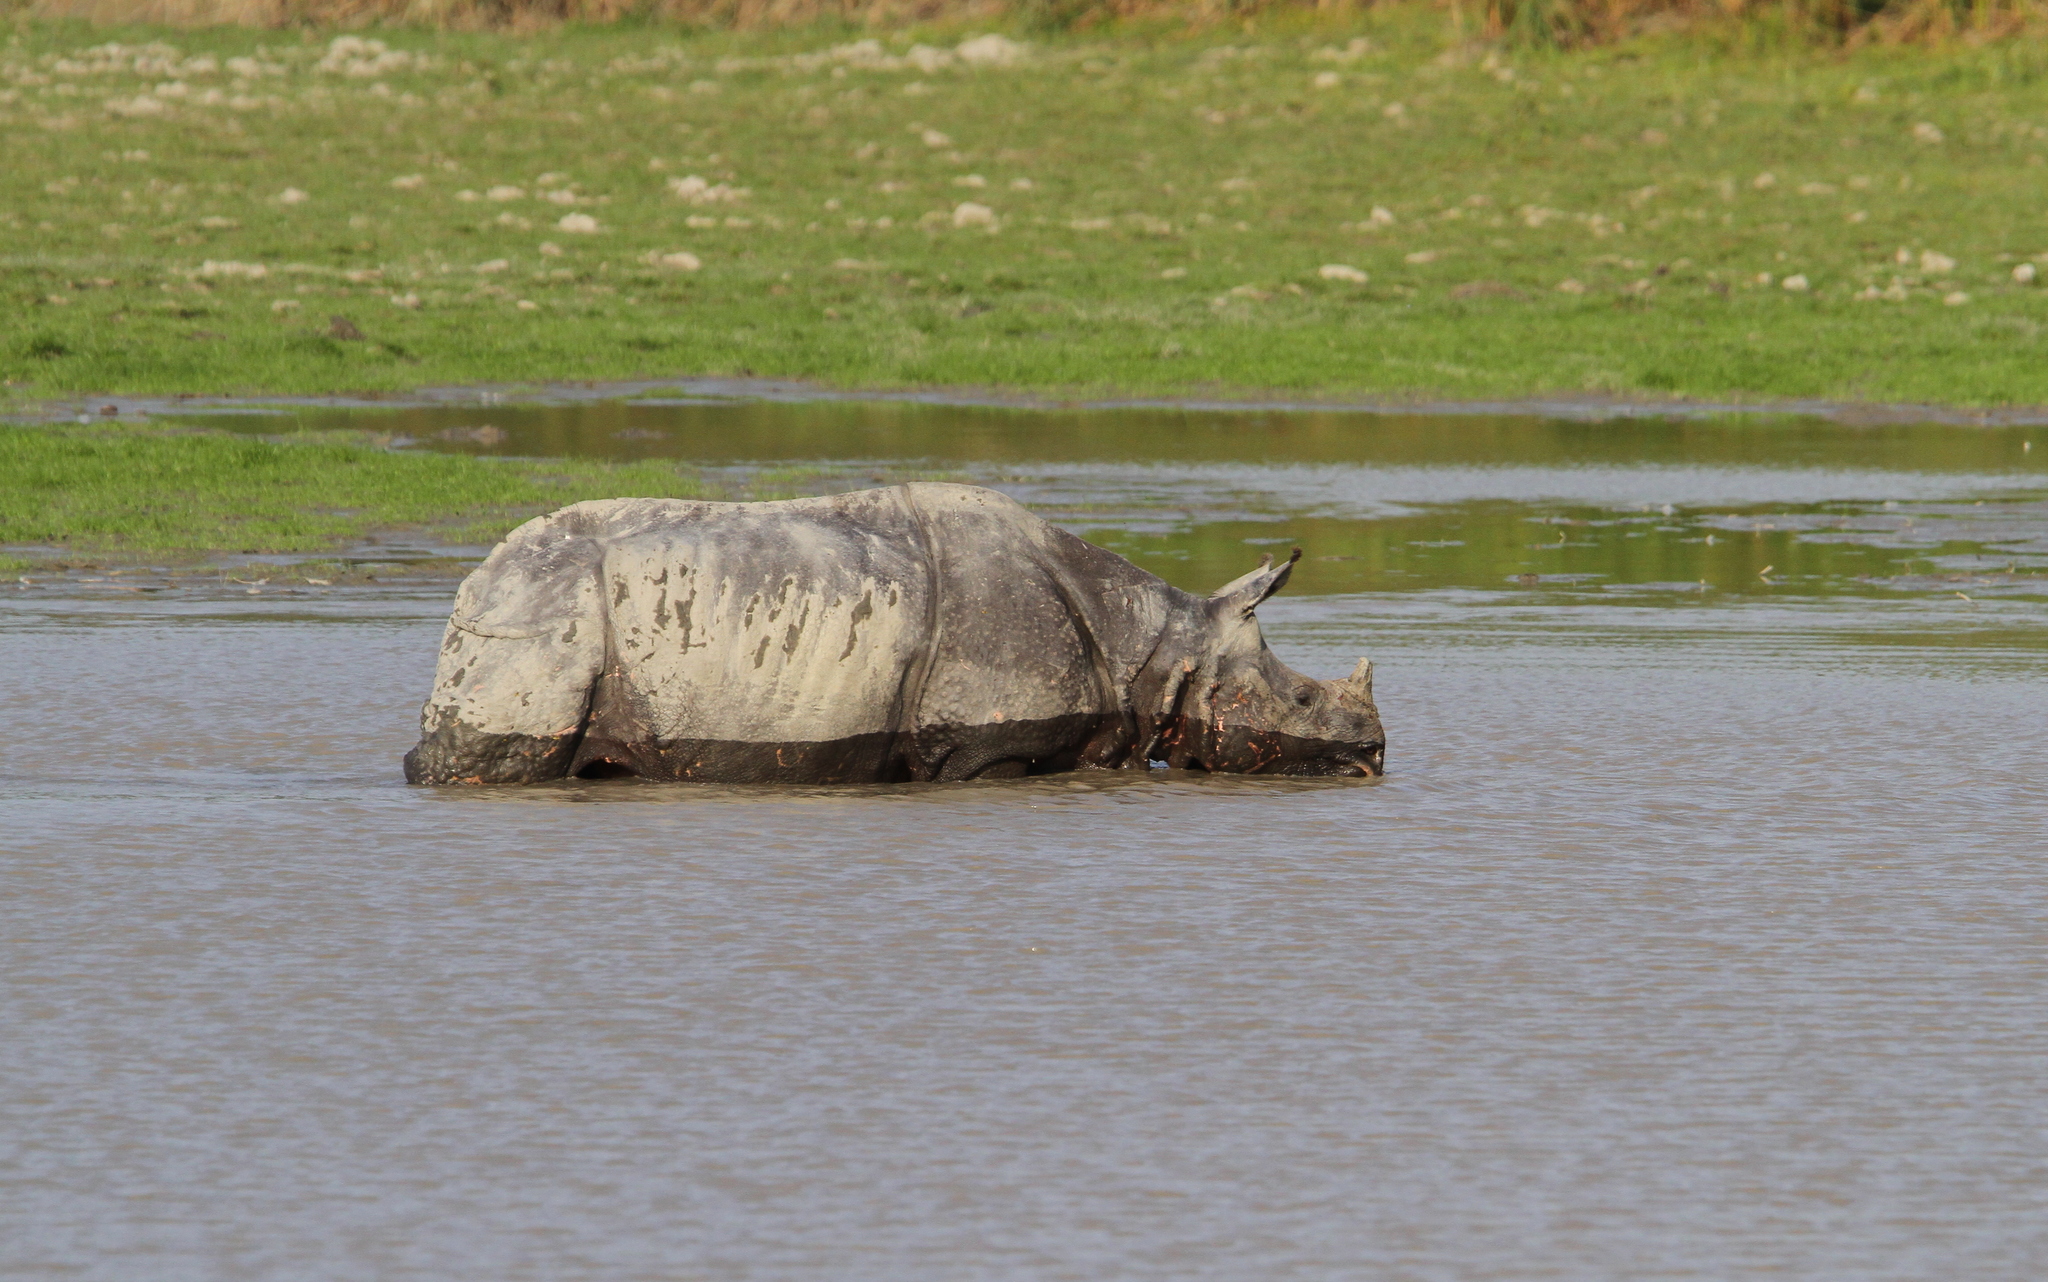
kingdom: Animalia
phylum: Chordata
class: Mammalia
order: Perissodactyla
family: Rhinocerotidae
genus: Rhinoceros
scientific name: Rhinoceros unicornis
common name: Indian rhinoceros
